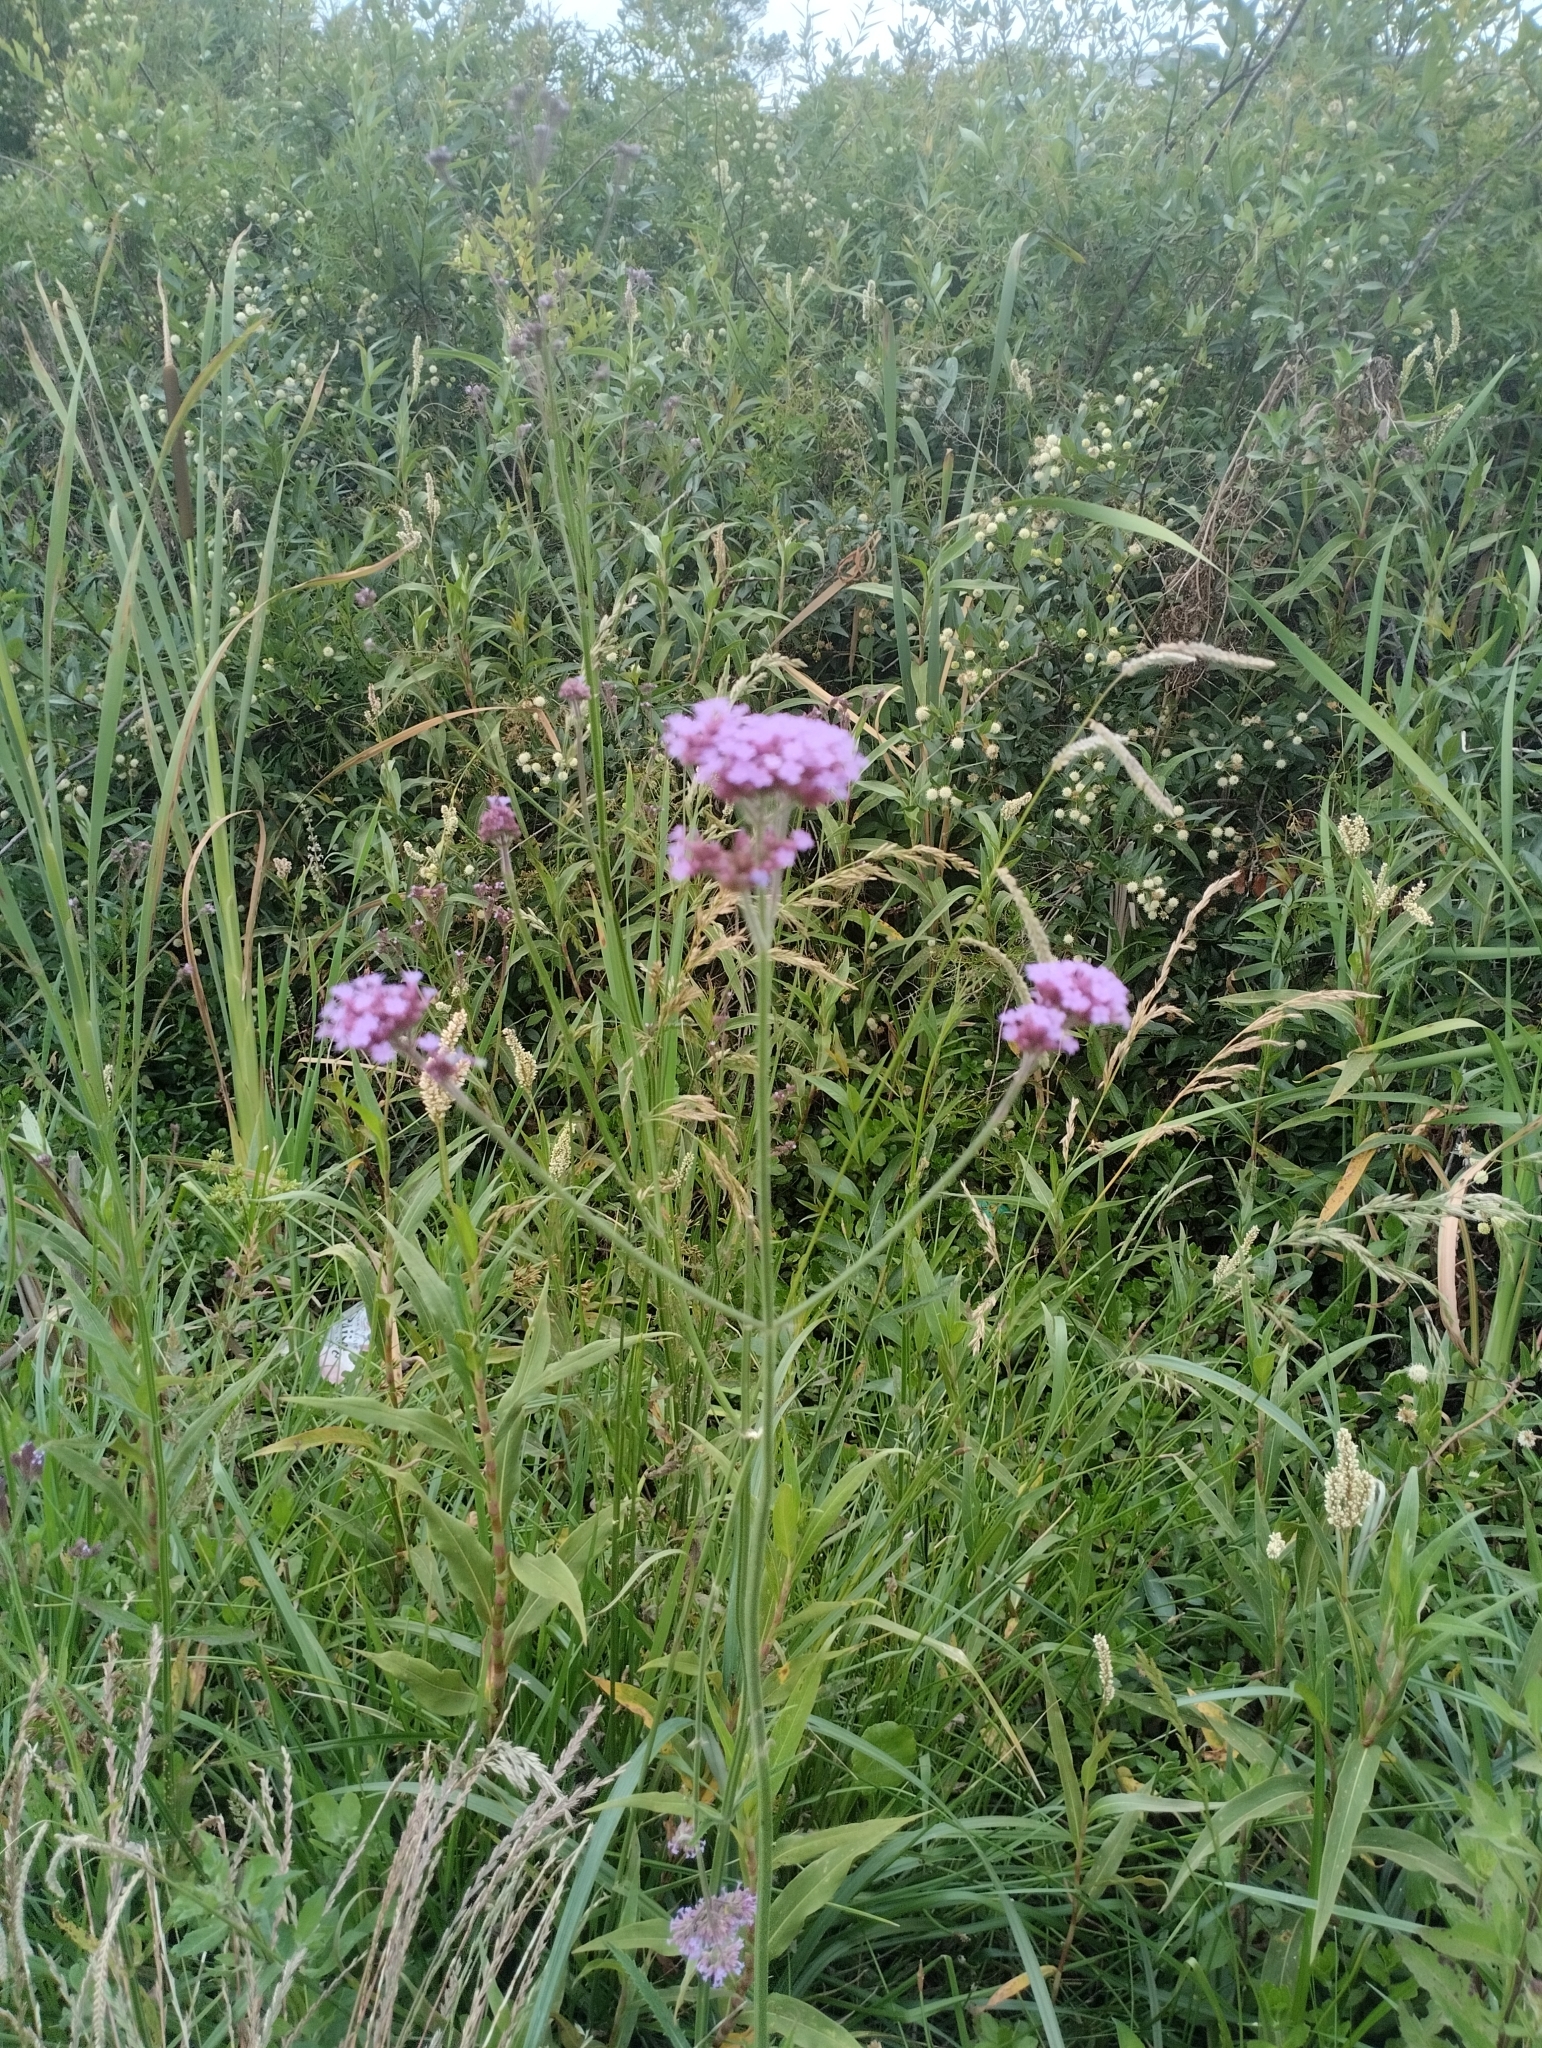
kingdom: Plantae
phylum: Tracheophyta
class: Magnoliopsida
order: Lamiales
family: Verbenaceae
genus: Verbena
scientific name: Verbena bonariensis
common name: Purpletop vervain
